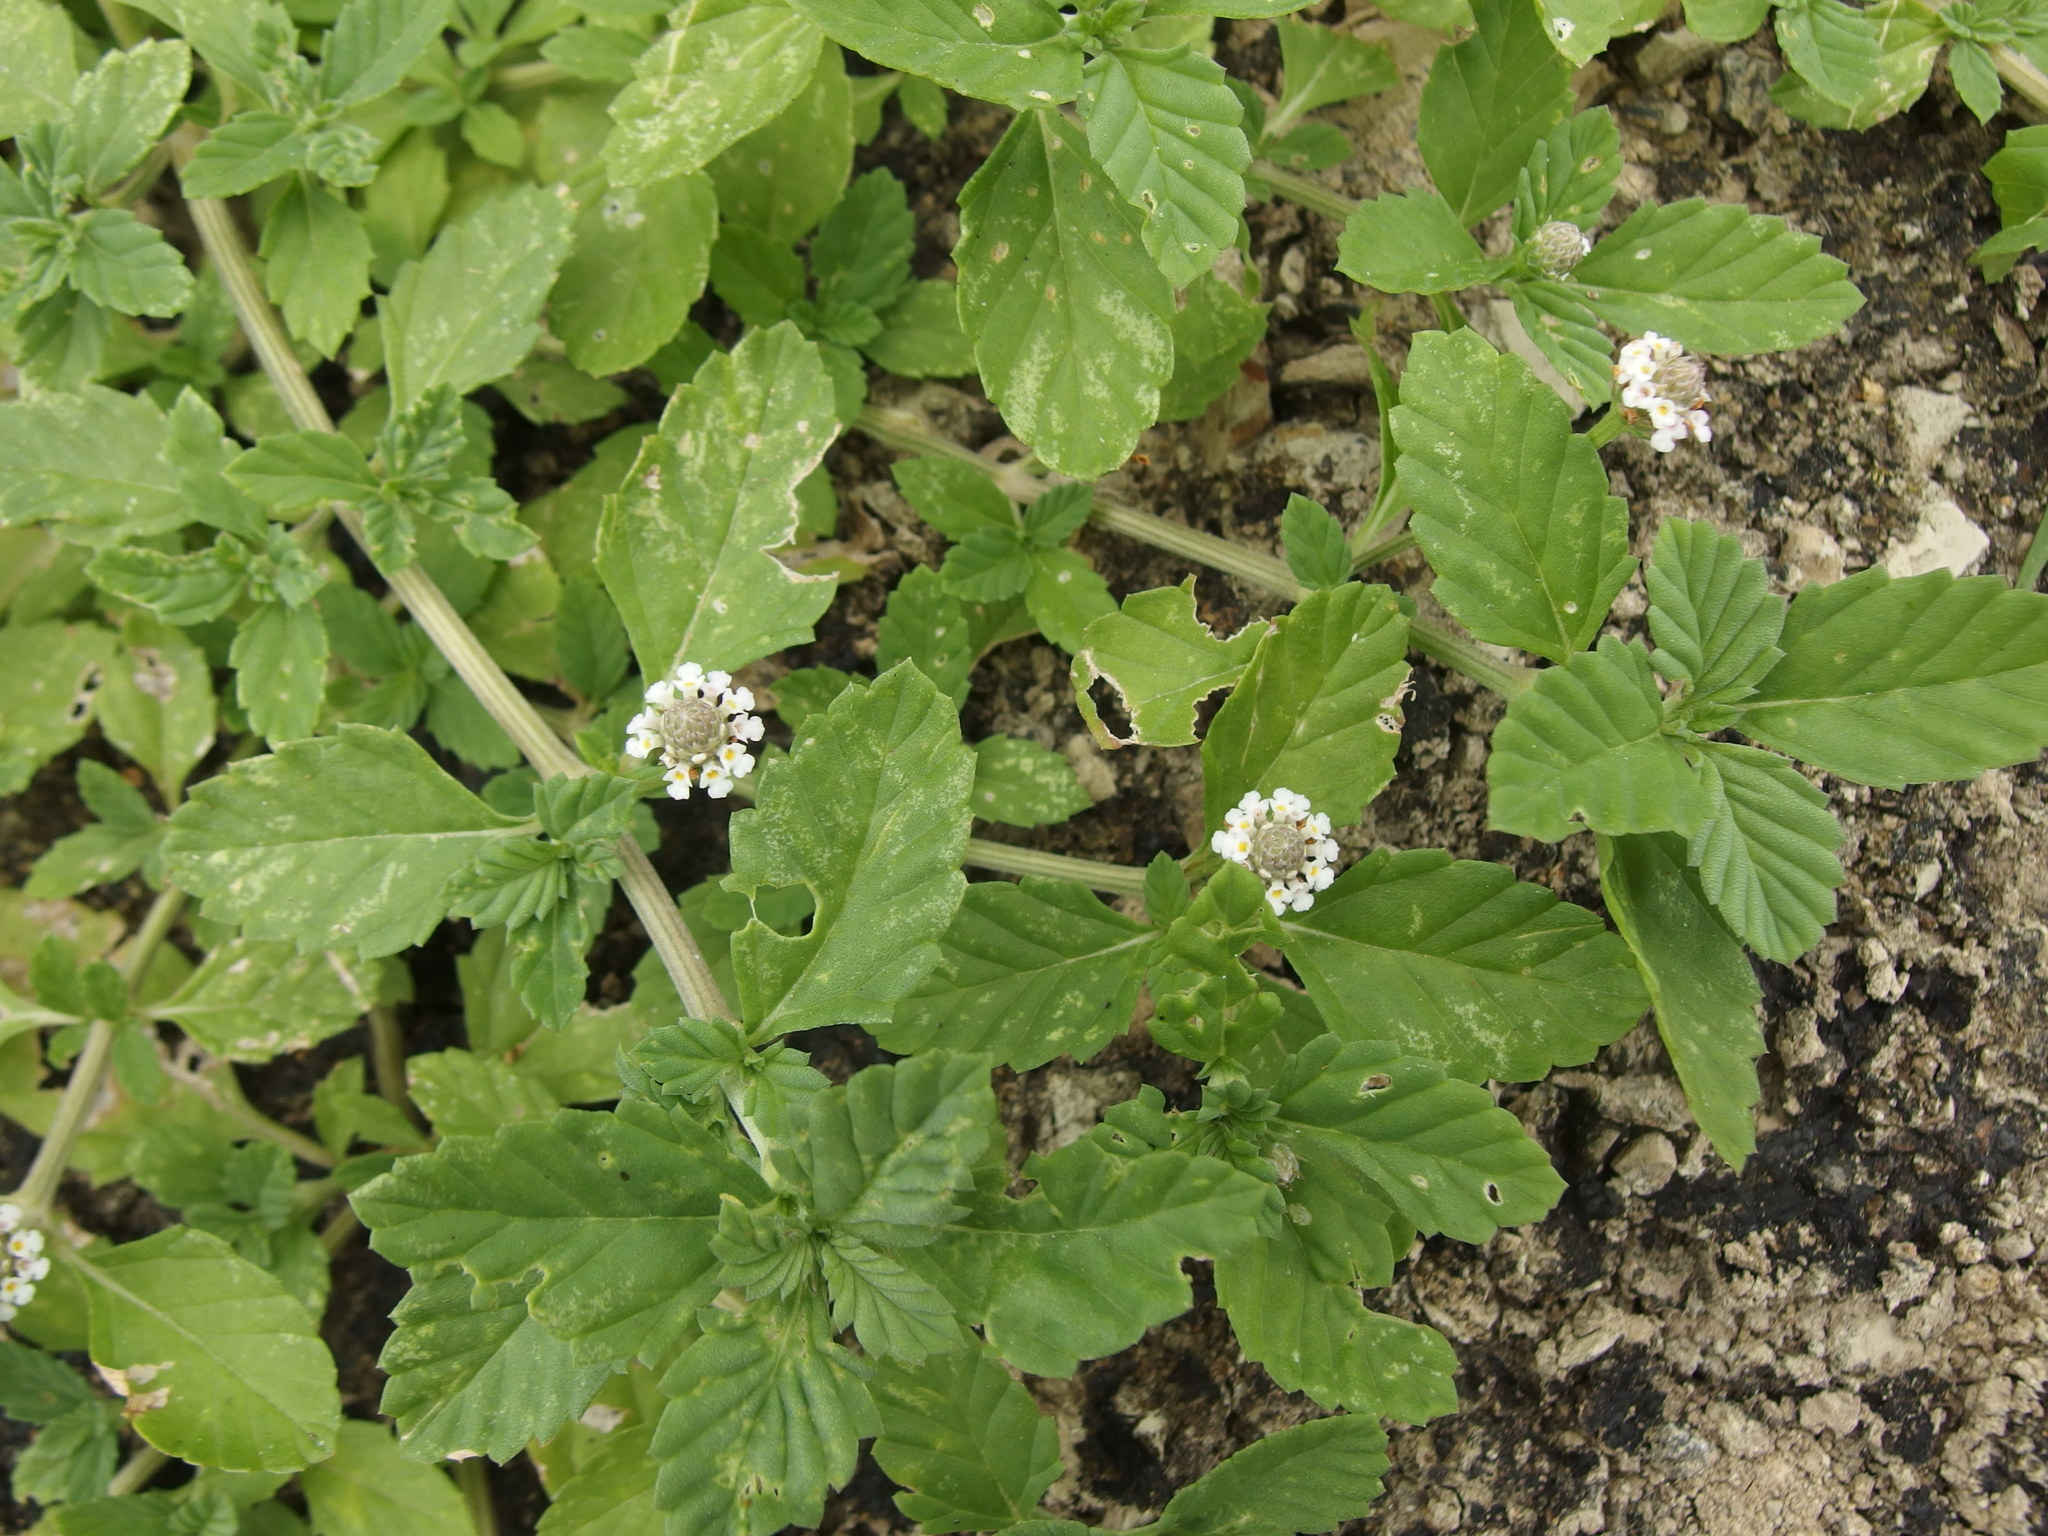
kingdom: Plantae
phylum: Tracheophyta
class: Magnoliopsida
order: Lamiales
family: Verbenaceae
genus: Phyla
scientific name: Phyla nodiflora
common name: Frogfruit
